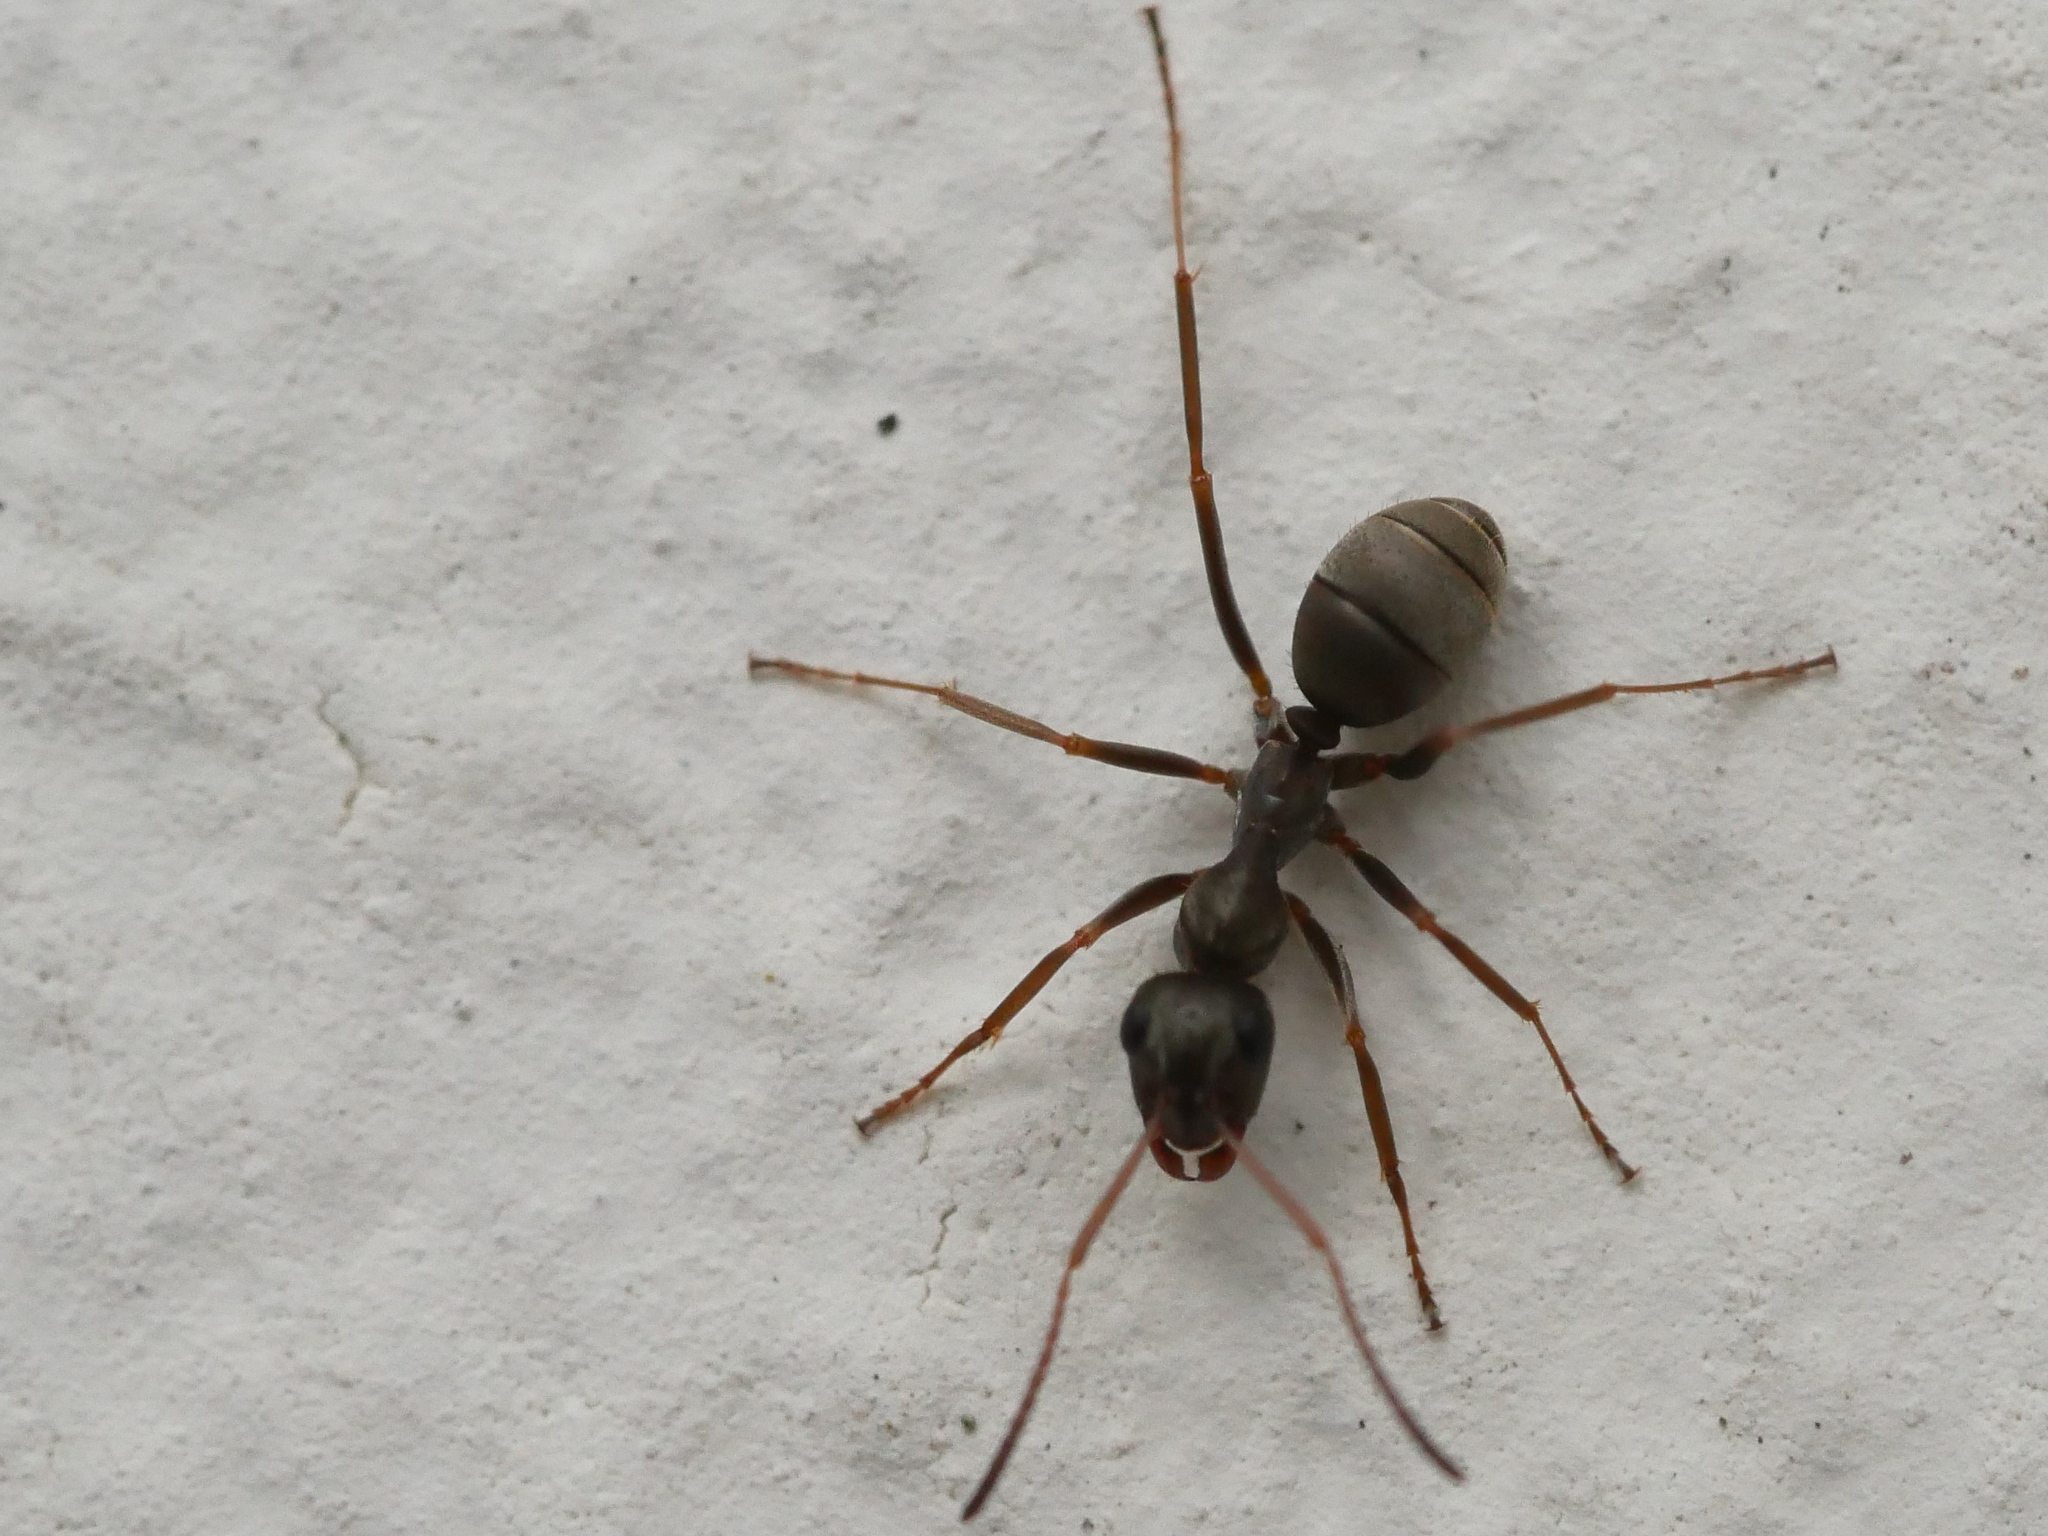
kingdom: Animalia
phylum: Arthropoda
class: Insecta
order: Hymenoptera
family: Formicidae
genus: Formica
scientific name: Formica cinerea
